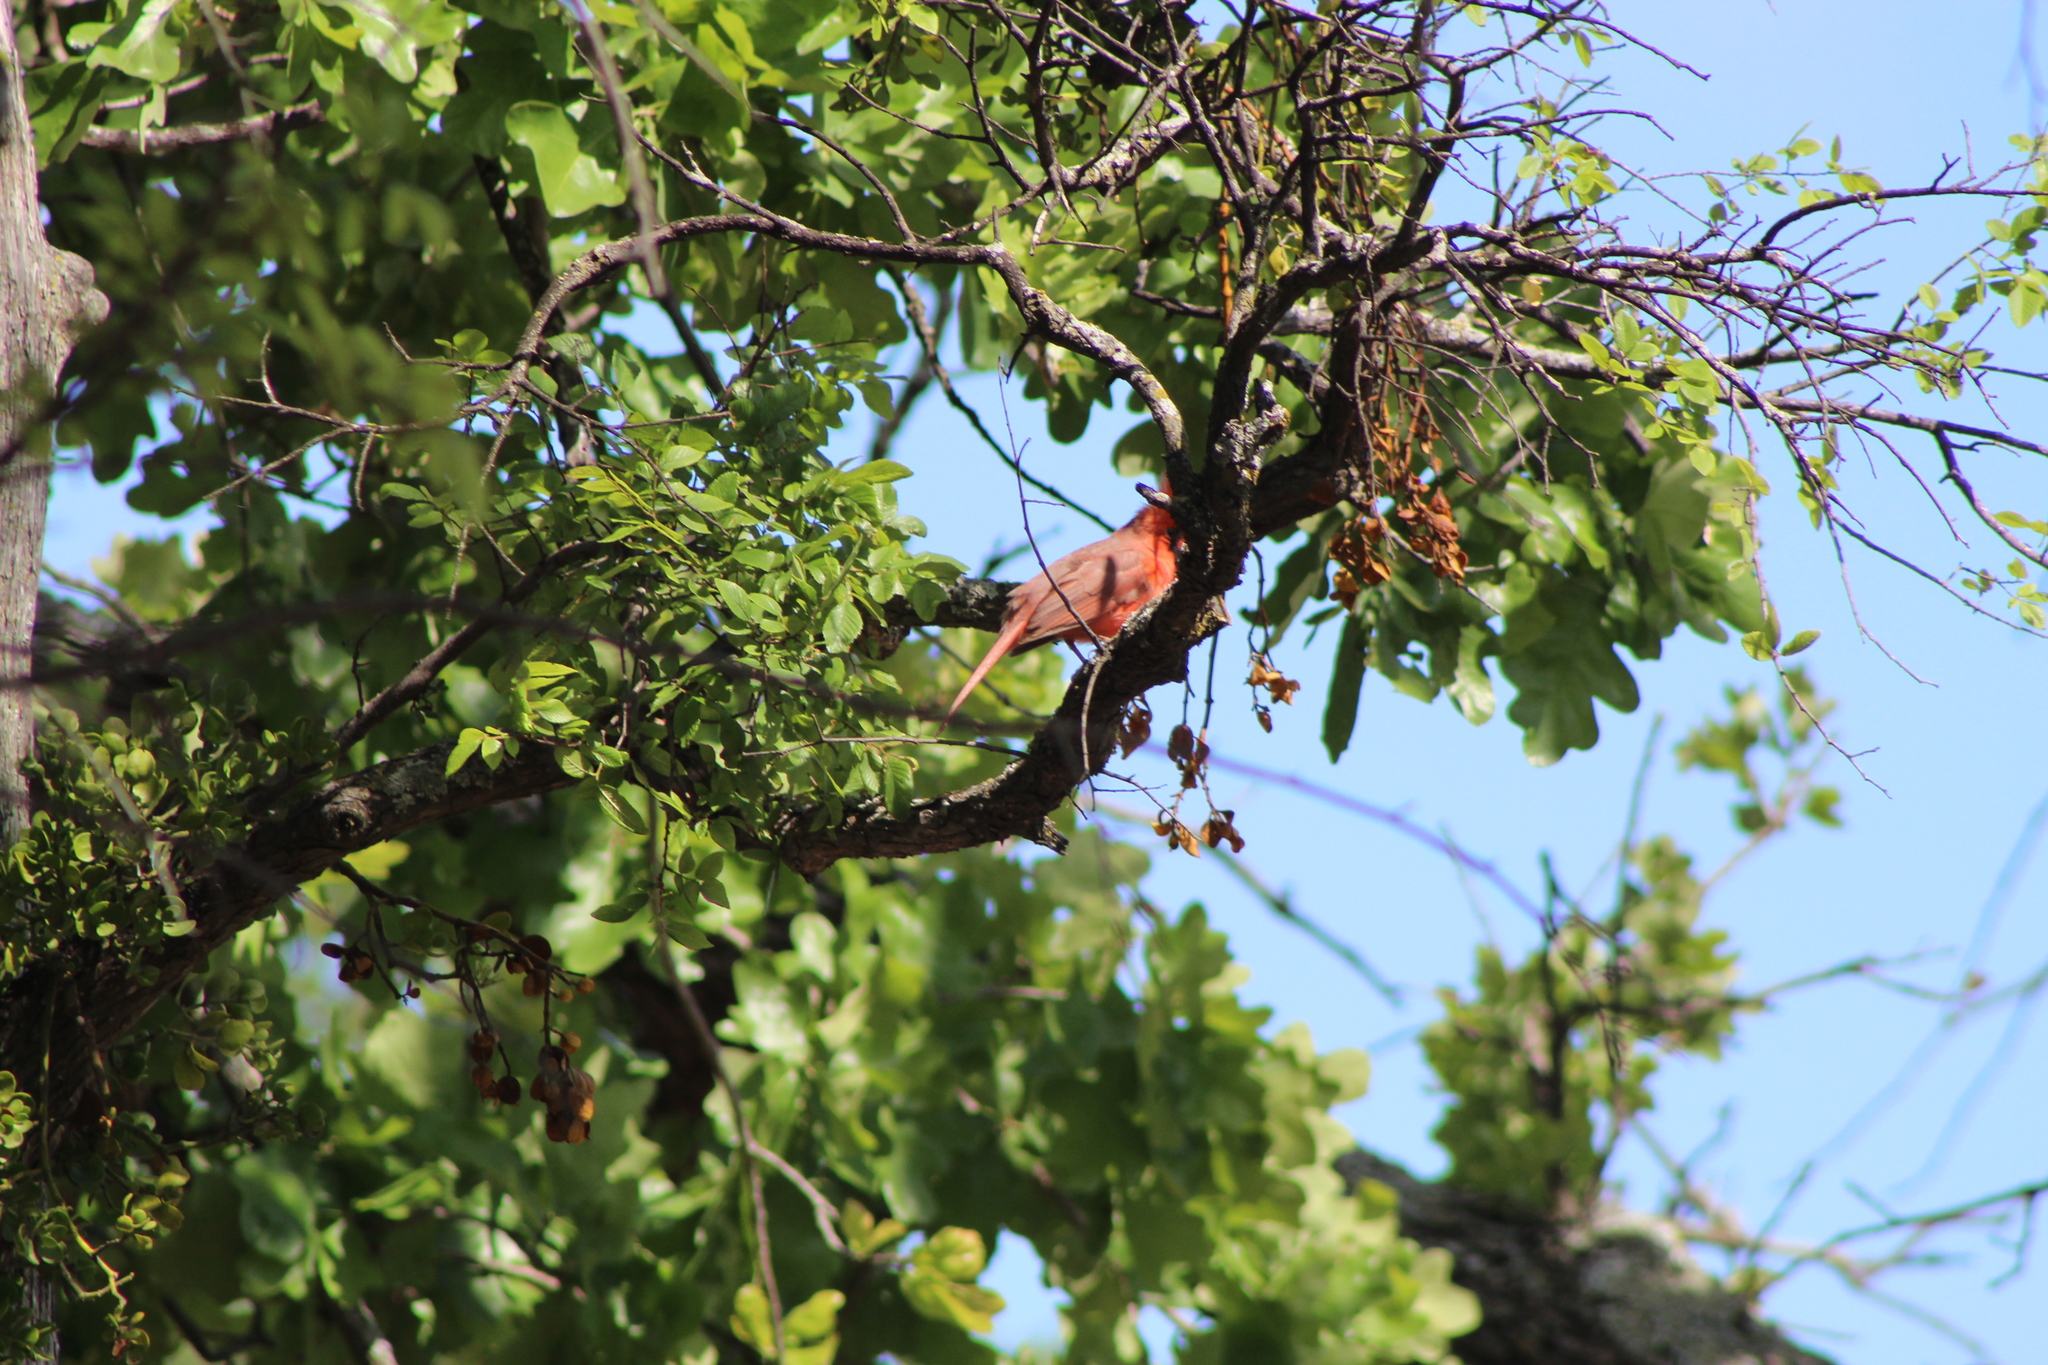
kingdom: Animalia
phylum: Chordata
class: Aves
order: Passeriformes
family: Cardinalidae
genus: Cardinalis
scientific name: Cardinalis cardinalis
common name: Northern cardinal
